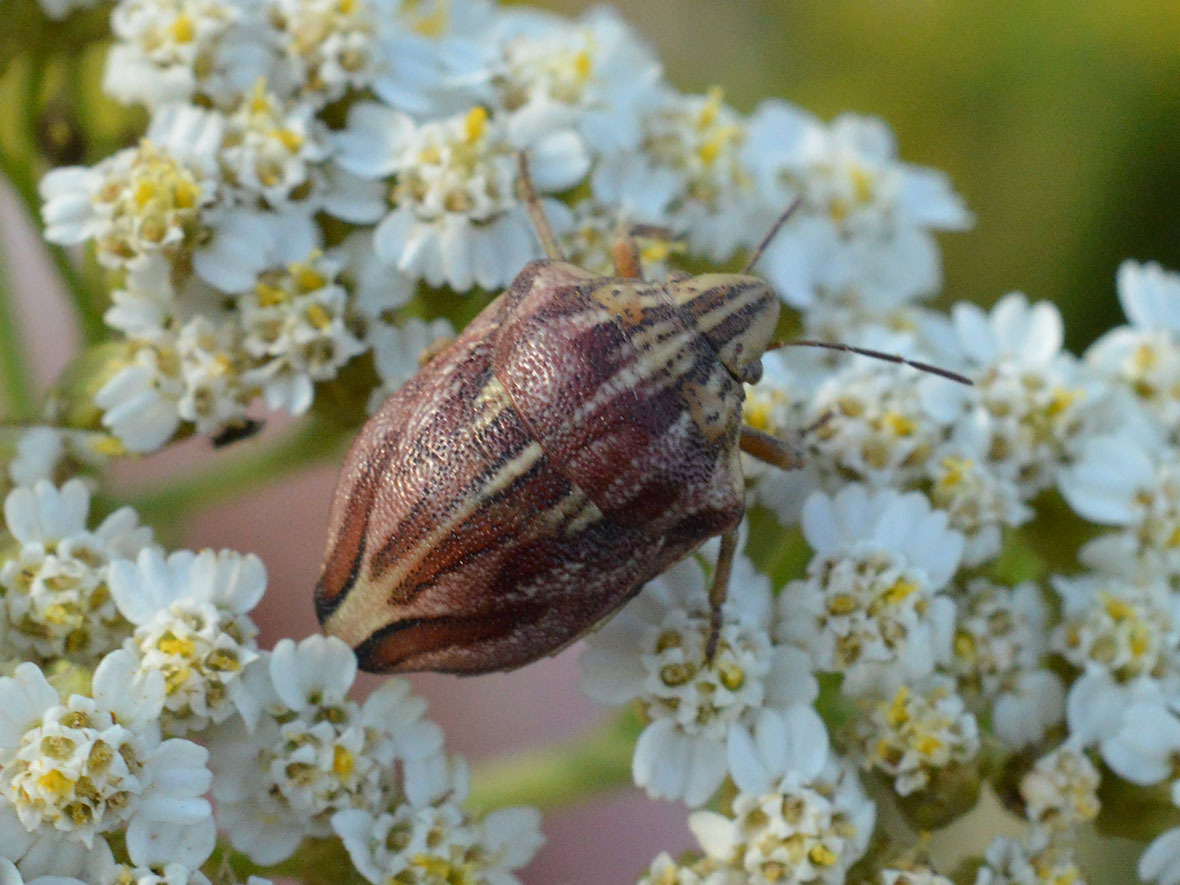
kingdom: Animalia
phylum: Arthropoda
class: Insecta
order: Hemiptera
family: Scutelleridae
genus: Odontotarsus
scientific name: Odontotarsus purpureolineatus
